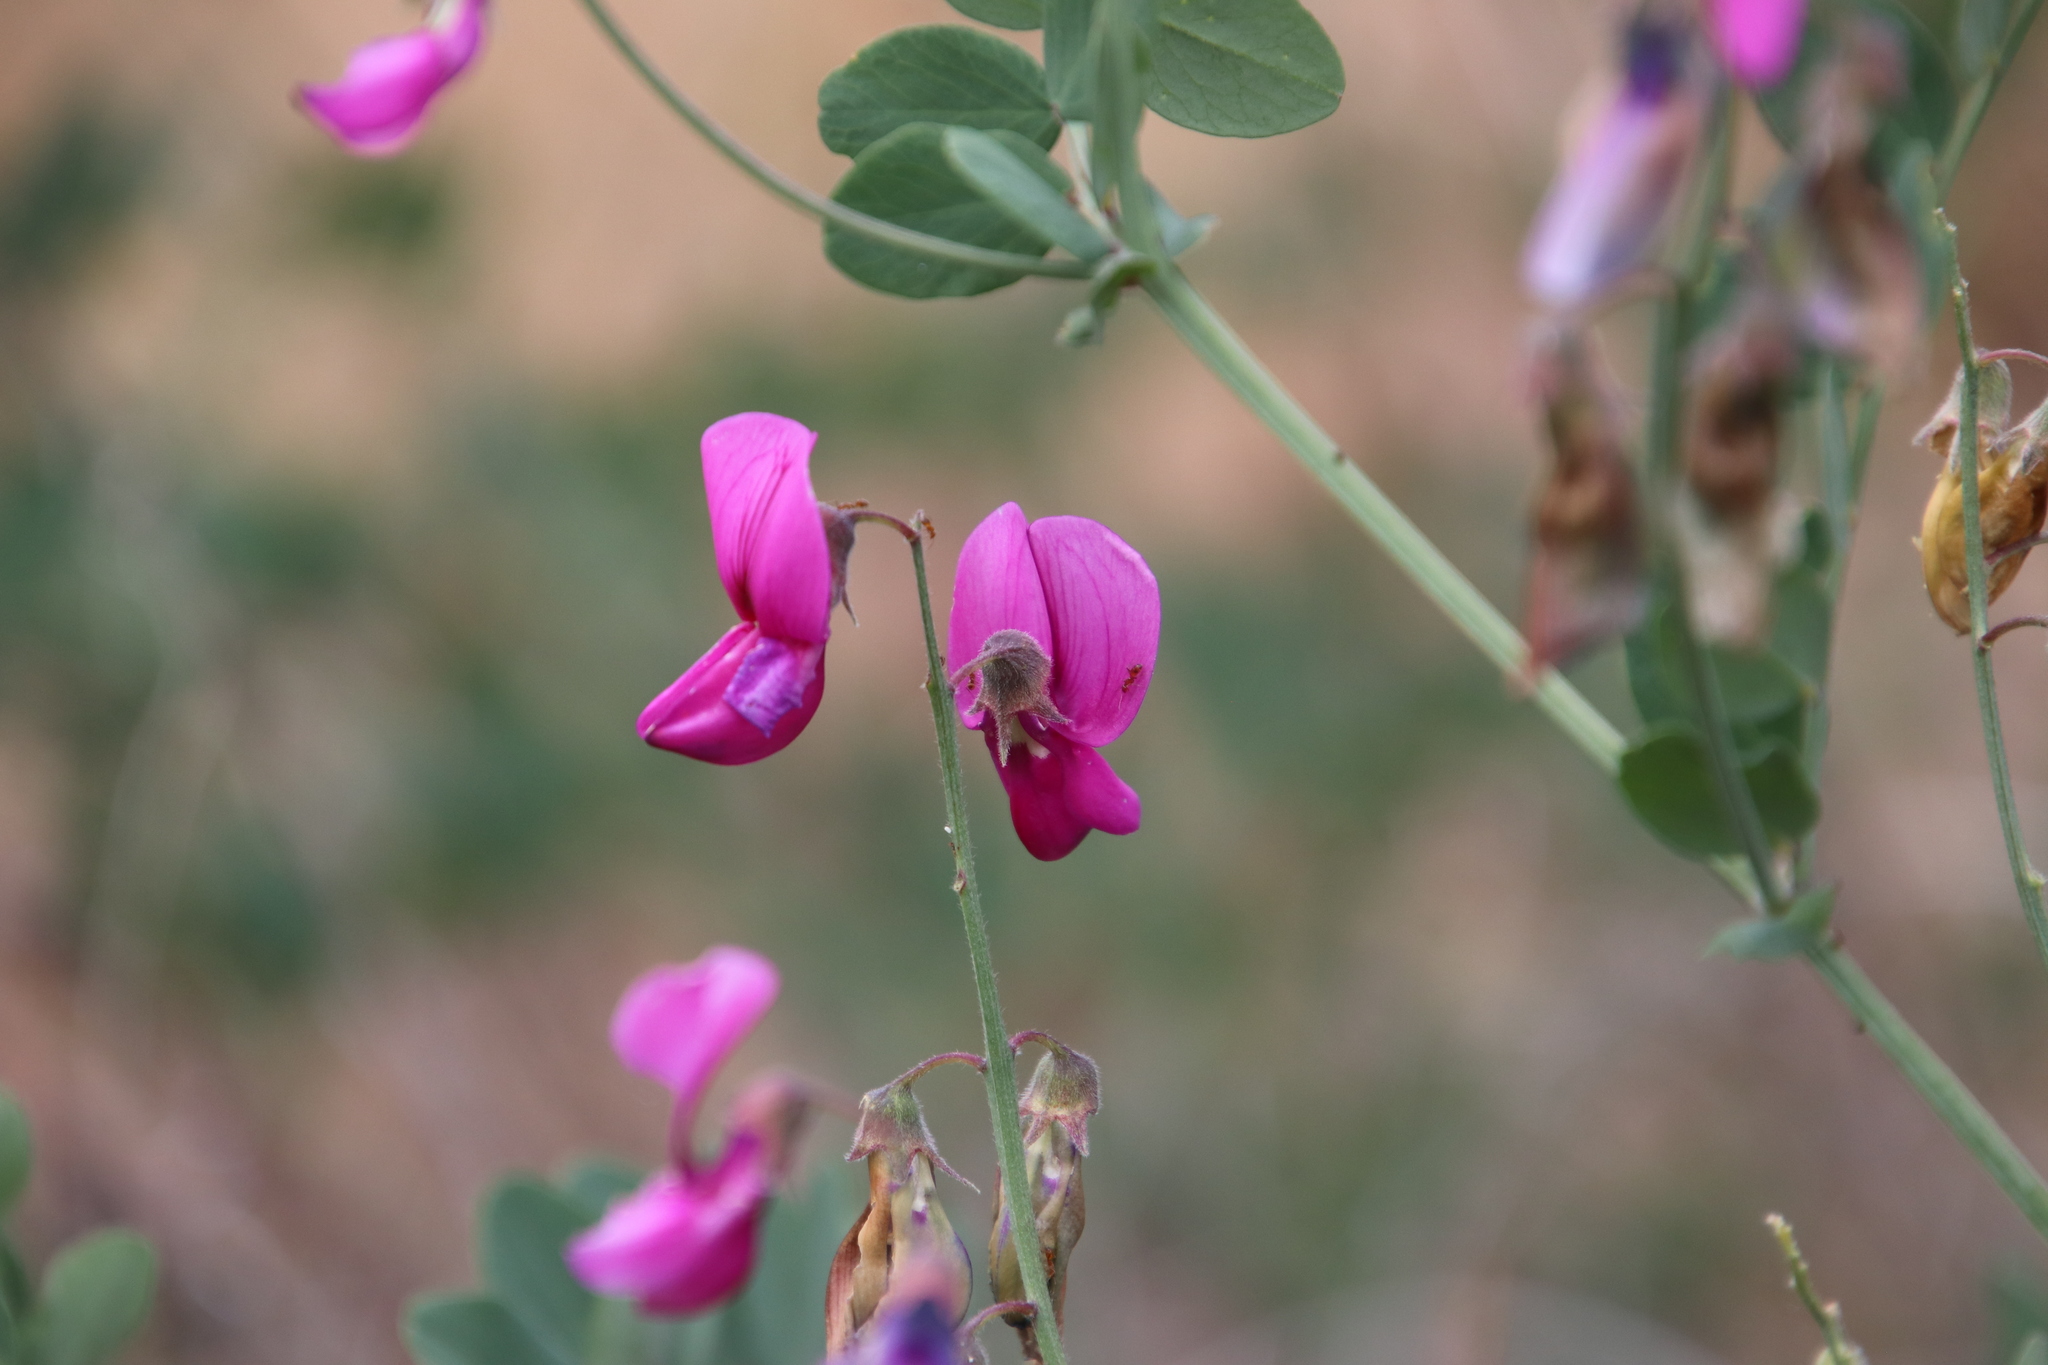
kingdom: Plantae
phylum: Tracheophyta
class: Magnoliopsida
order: Fabales
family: Fabaceae
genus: Lathyrus
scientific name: Lathyrus vestitus
